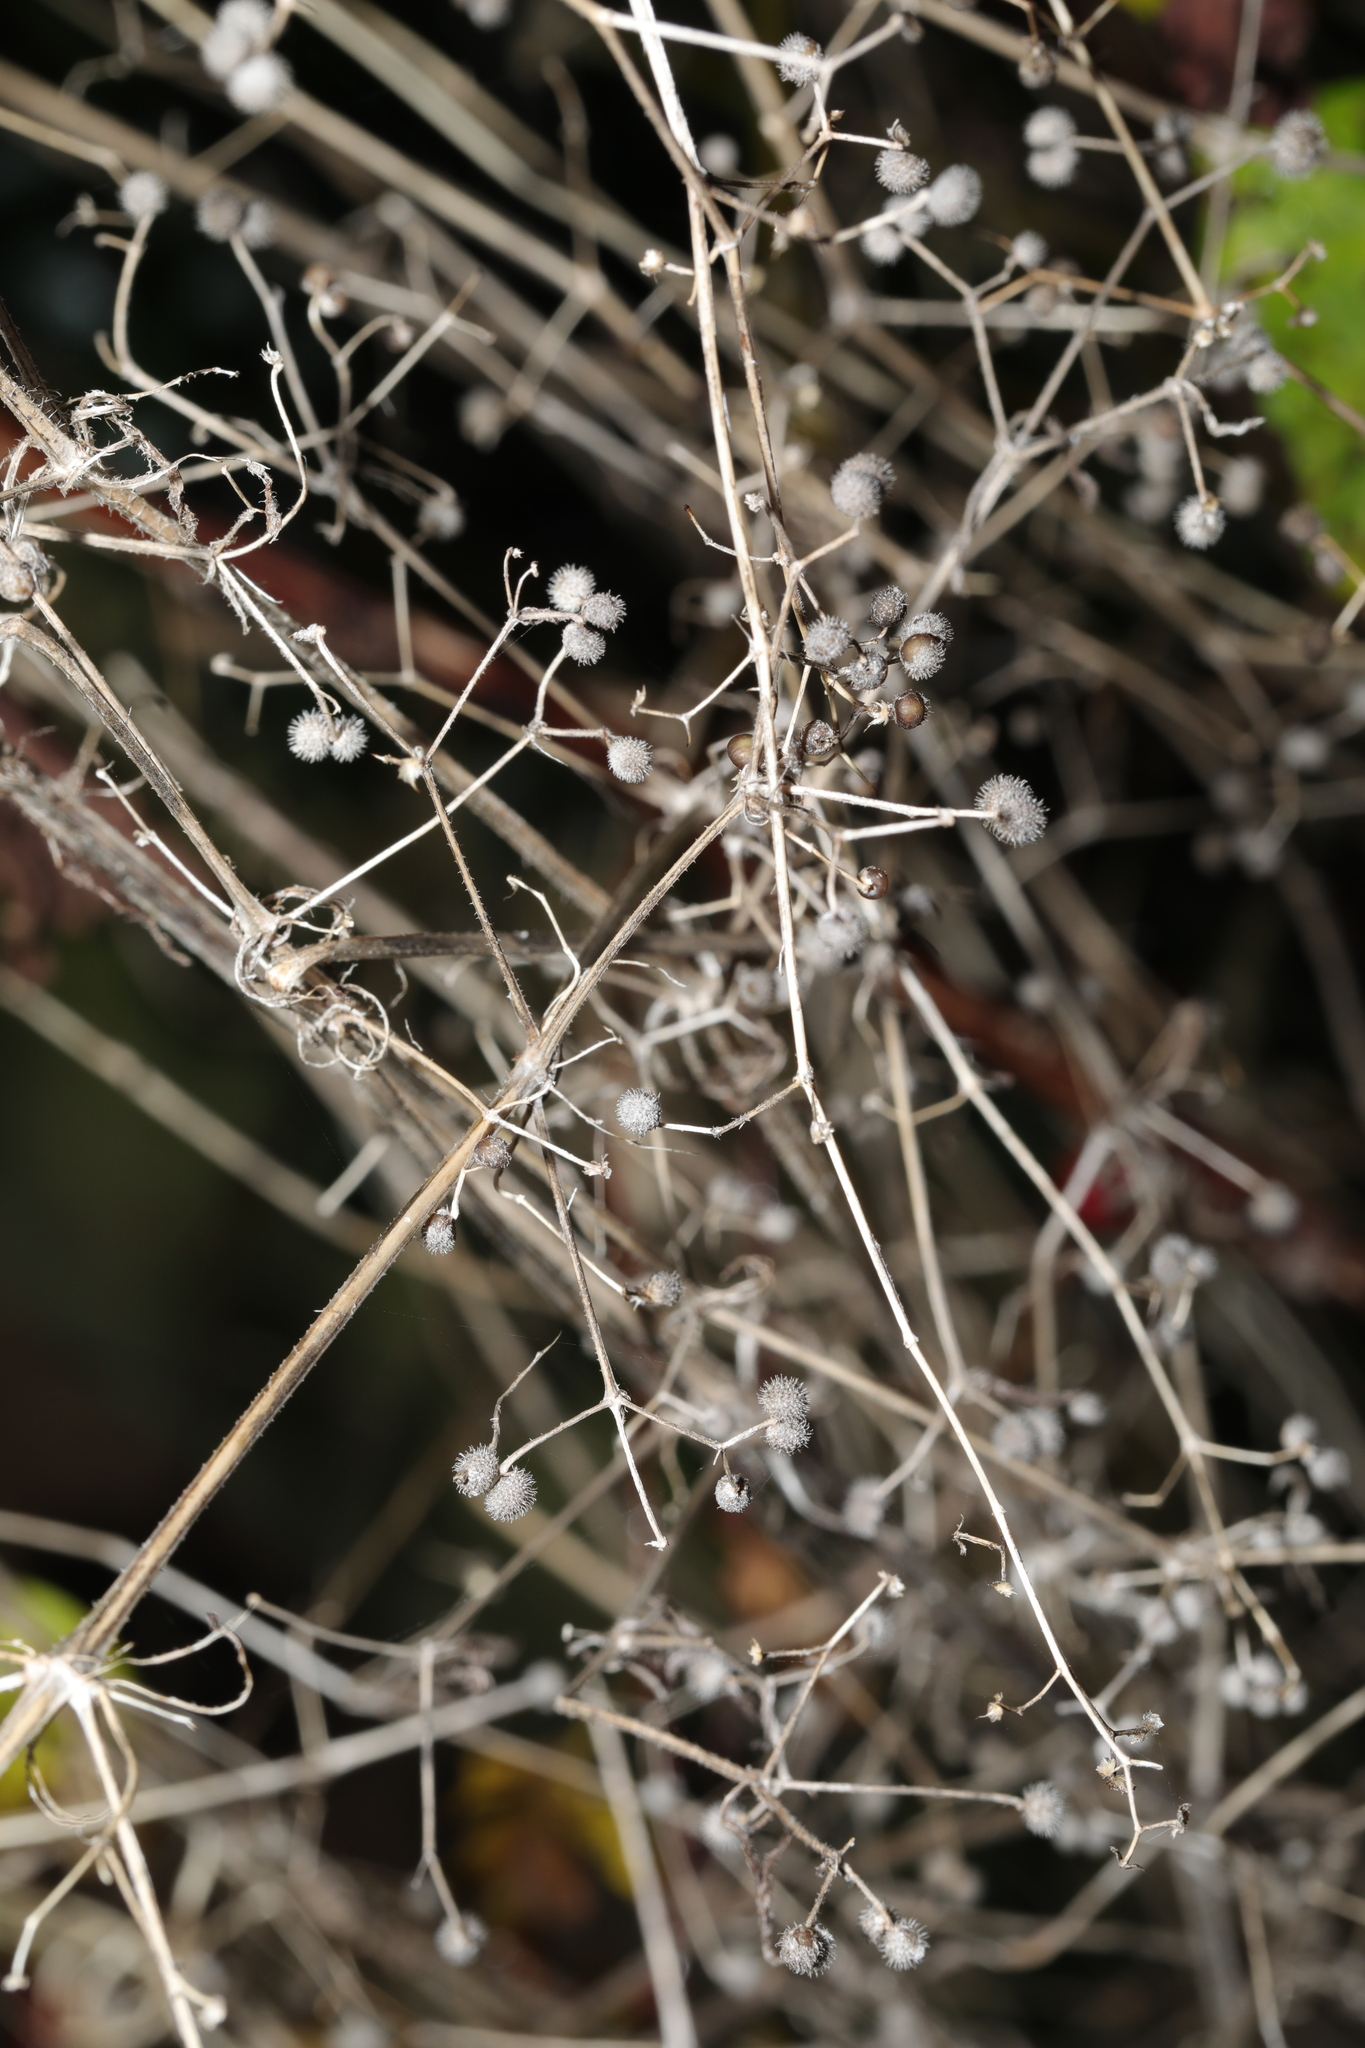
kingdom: Plantae
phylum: Tracheophyta
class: Magnoliopsida
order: Gentianales
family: Rubiaceae
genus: Galium
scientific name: Galium aparine
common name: Cleavers
